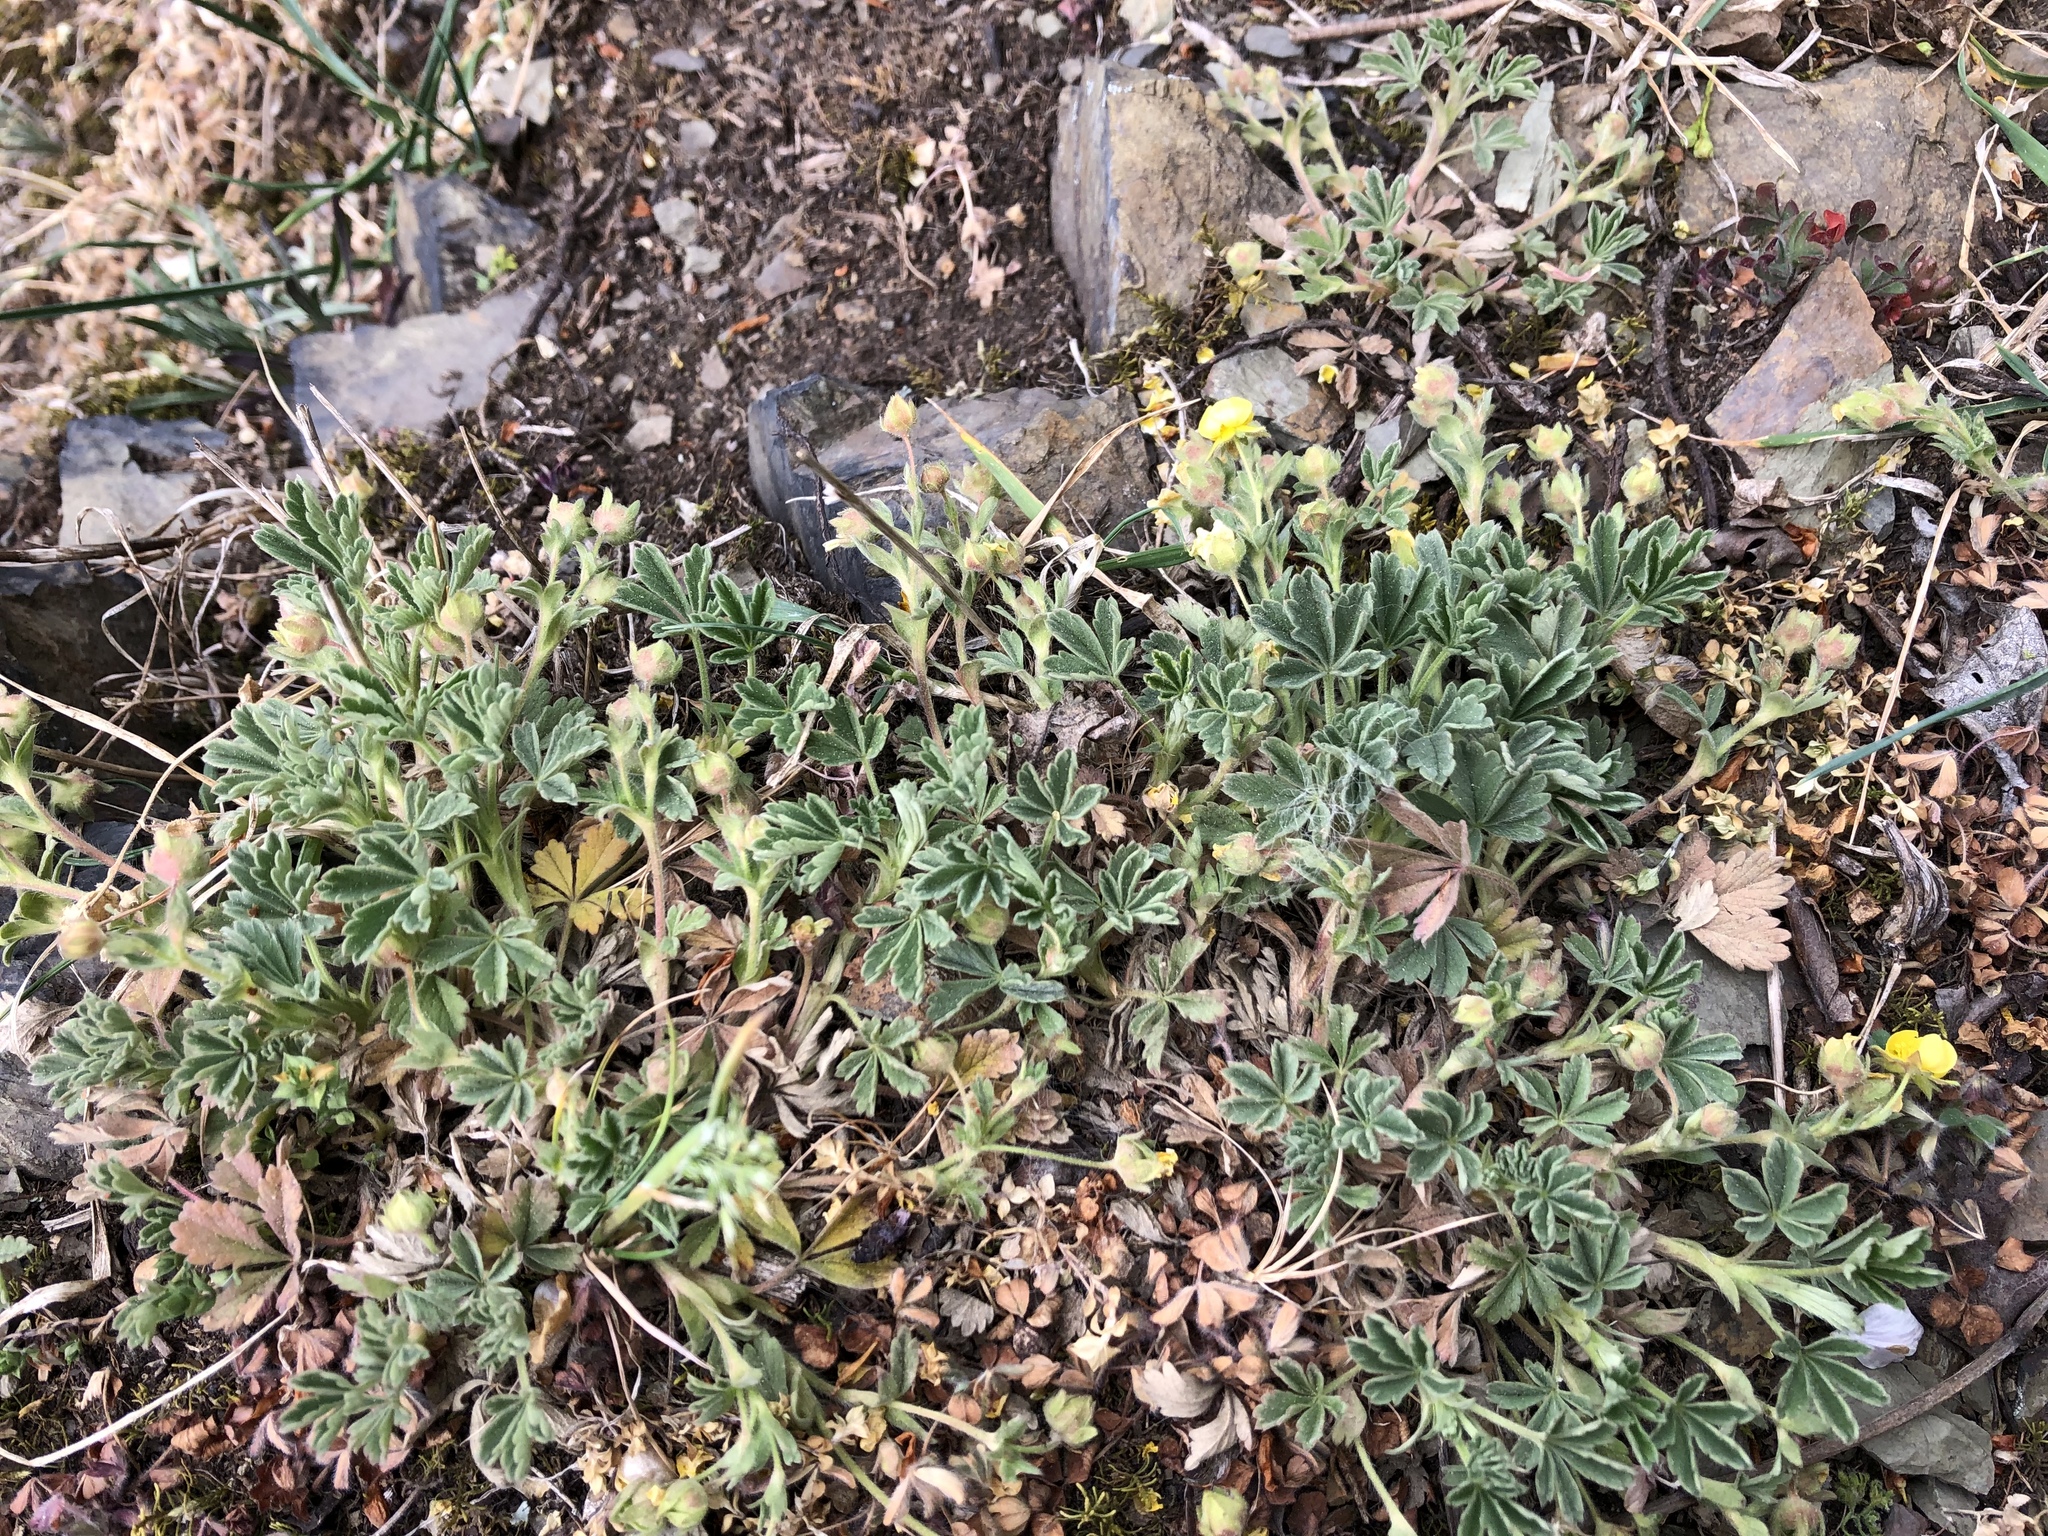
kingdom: Plantae
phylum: Tracheophyta
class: Magnoliopsida
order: Rosales
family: Rosaceae
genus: Potentilla
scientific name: Potentilla incana
